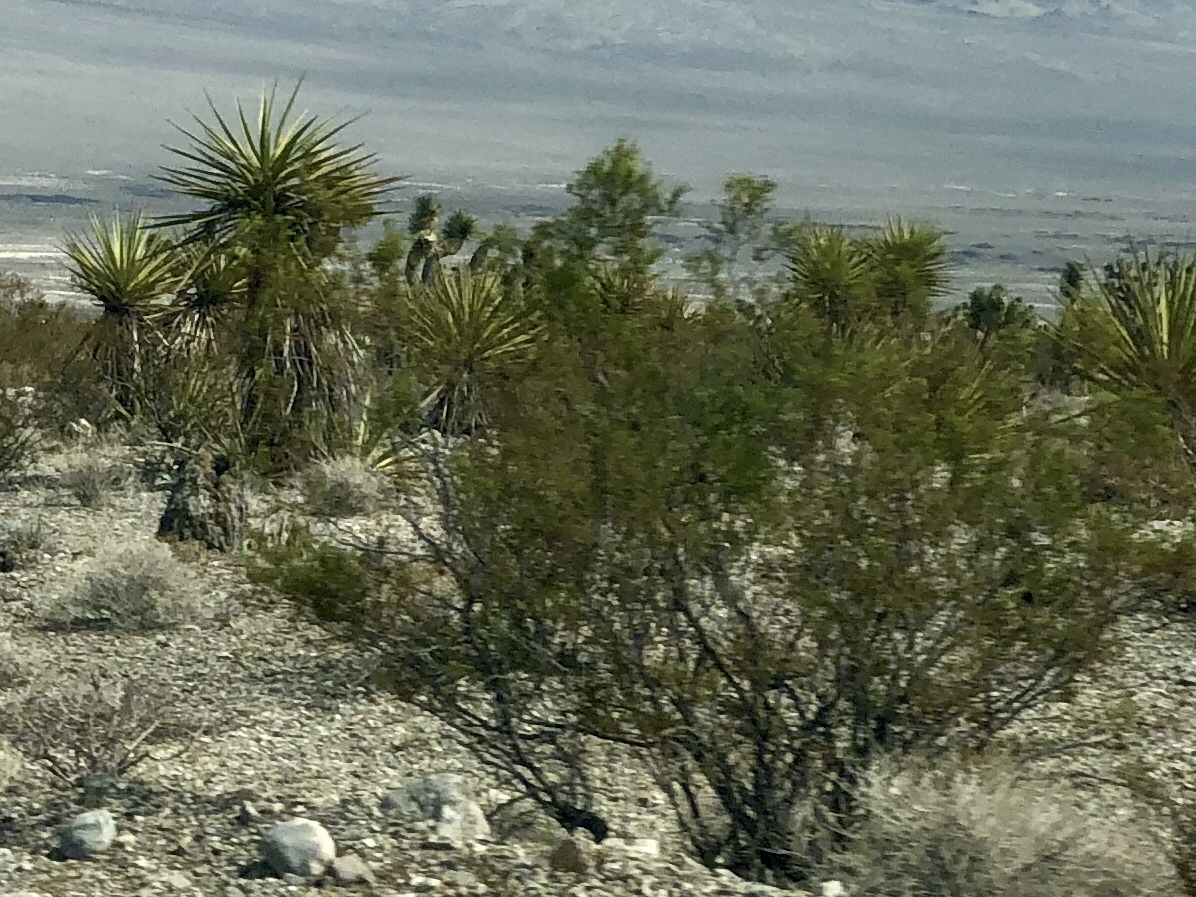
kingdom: Plantae
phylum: Tracheophyta
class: Magnoliopsida
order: Zygophyllales
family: Zygophyllaceae
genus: Larrea
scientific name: Larrea tridentata
